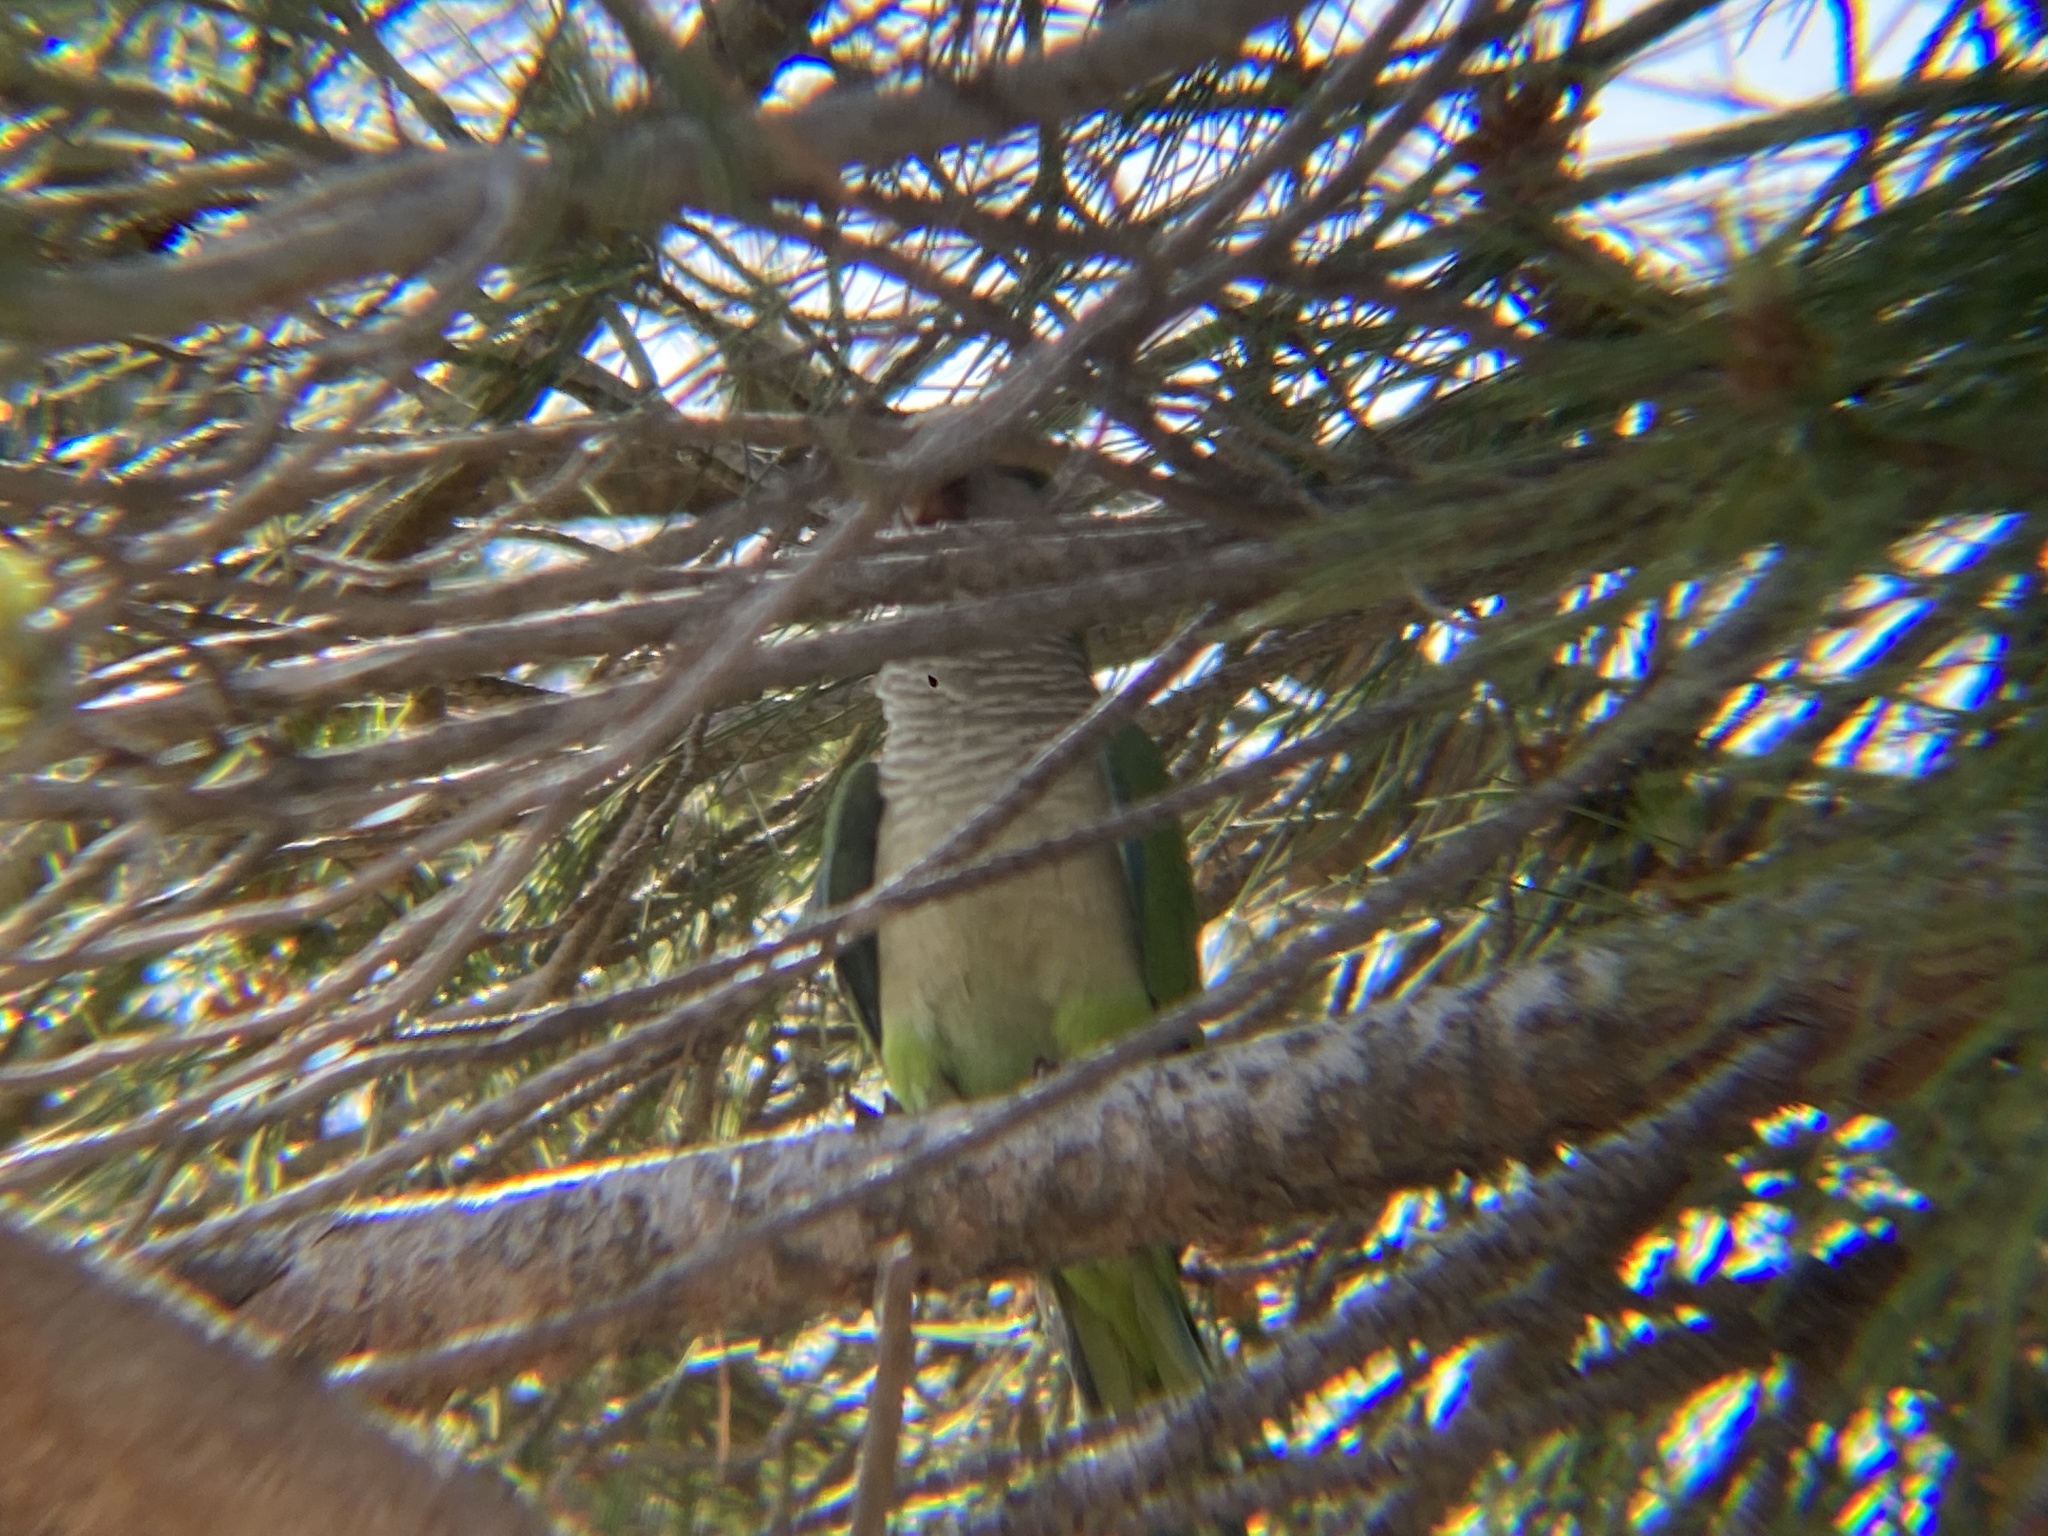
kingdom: Animalia
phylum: Chordata
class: Aves
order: Psittaciformes
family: Psittacidae
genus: Myiopsitta
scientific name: Myiopsitta monachus
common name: Monk parakeet
